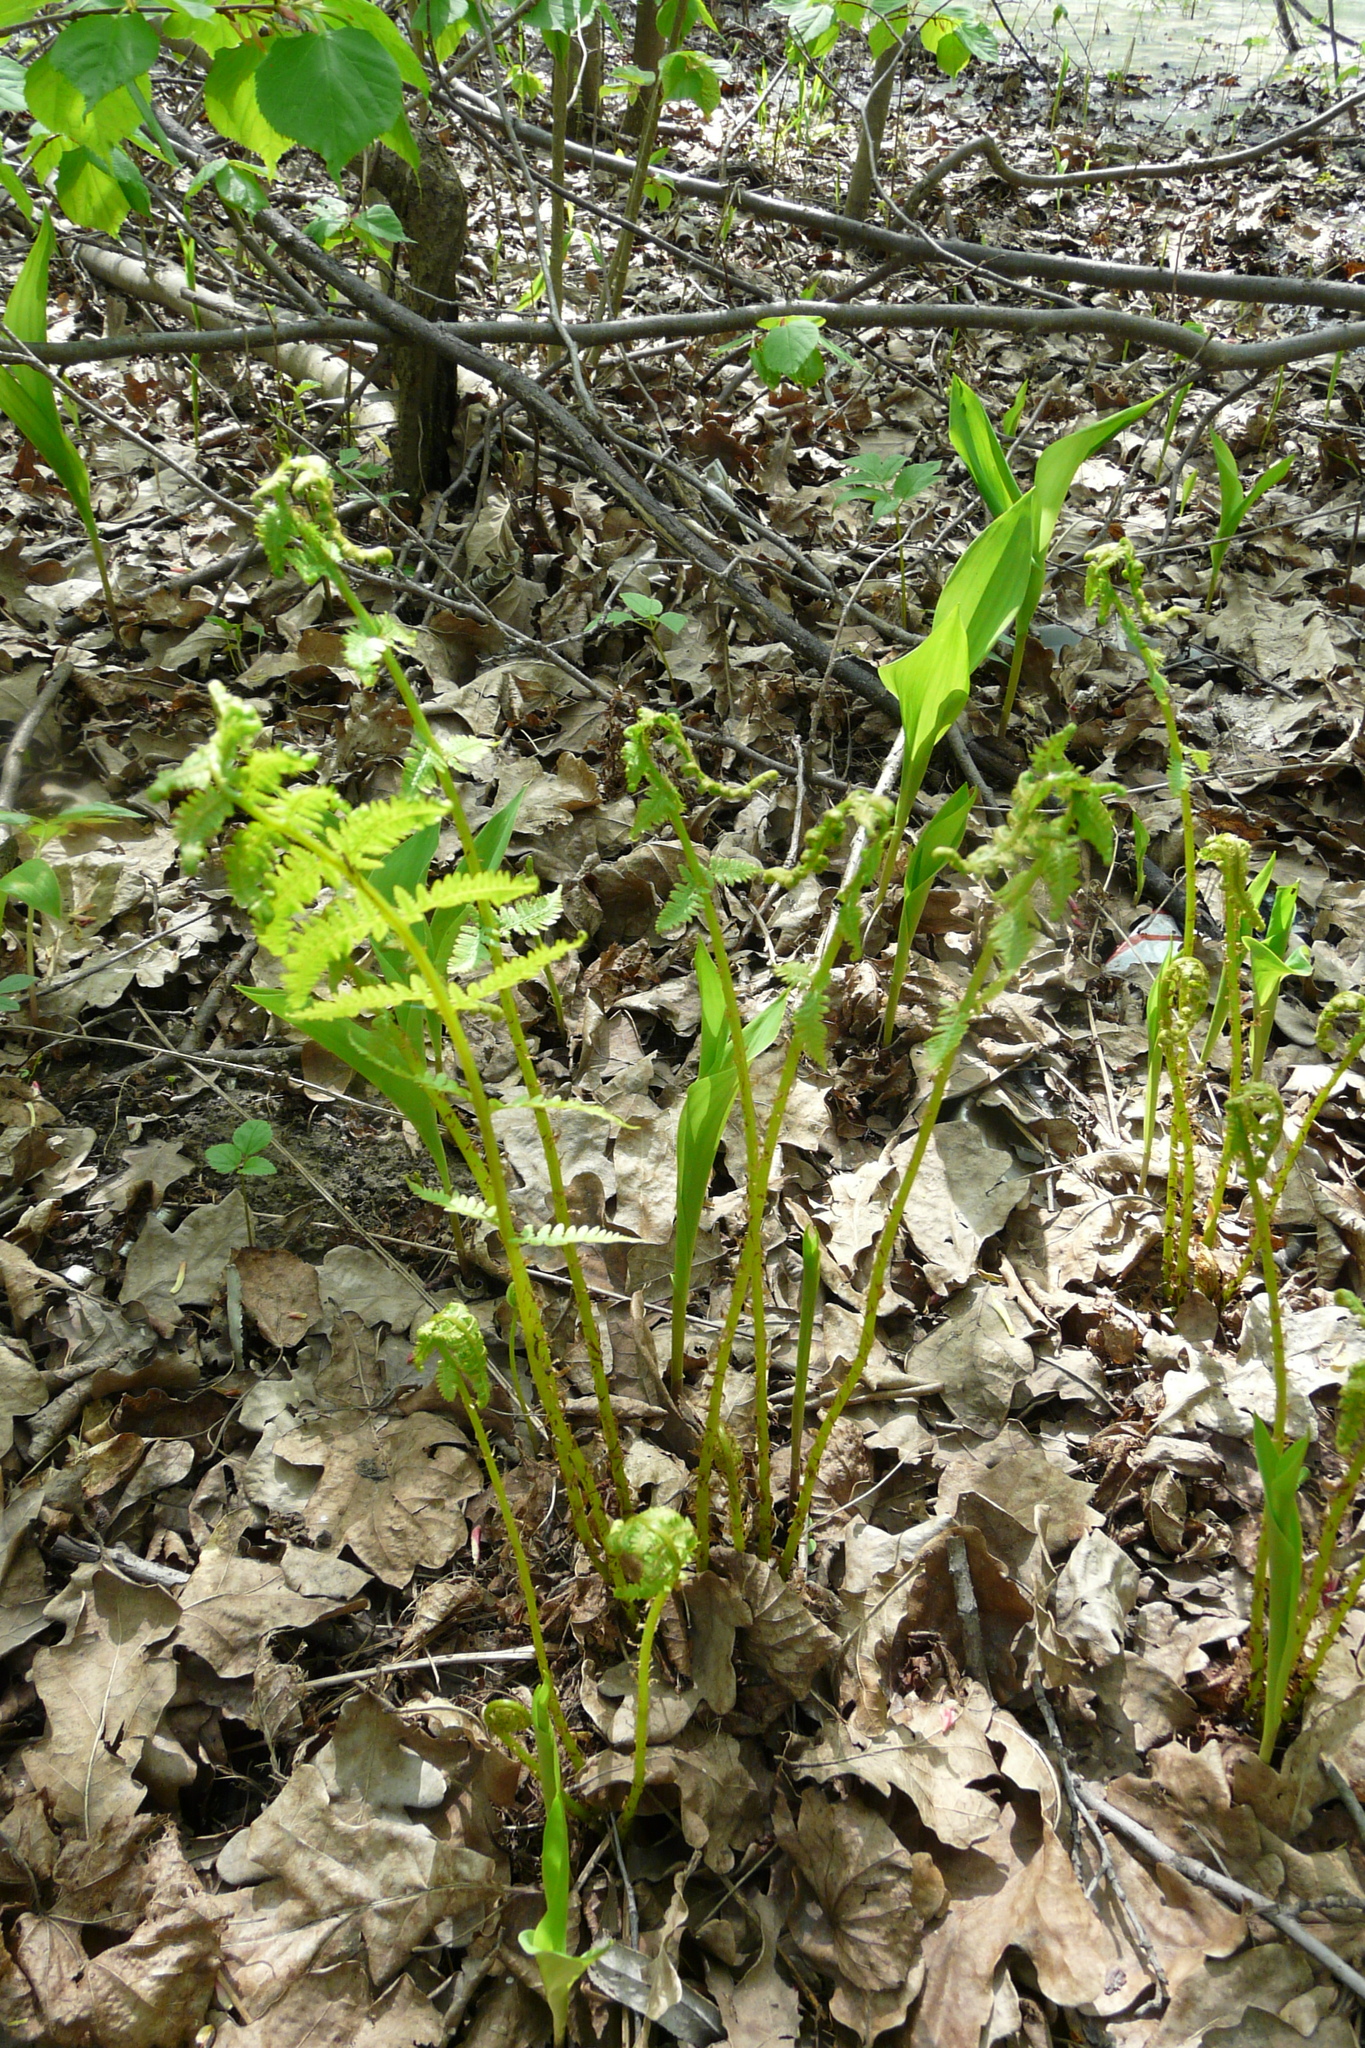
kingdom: Plantae
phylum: Tracheophyta
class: Polypodiopsida
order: Polypodiales
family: Dryopteridaceae
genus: Dryopteris
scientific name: Dryopteris filix-mas
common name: Male fern
